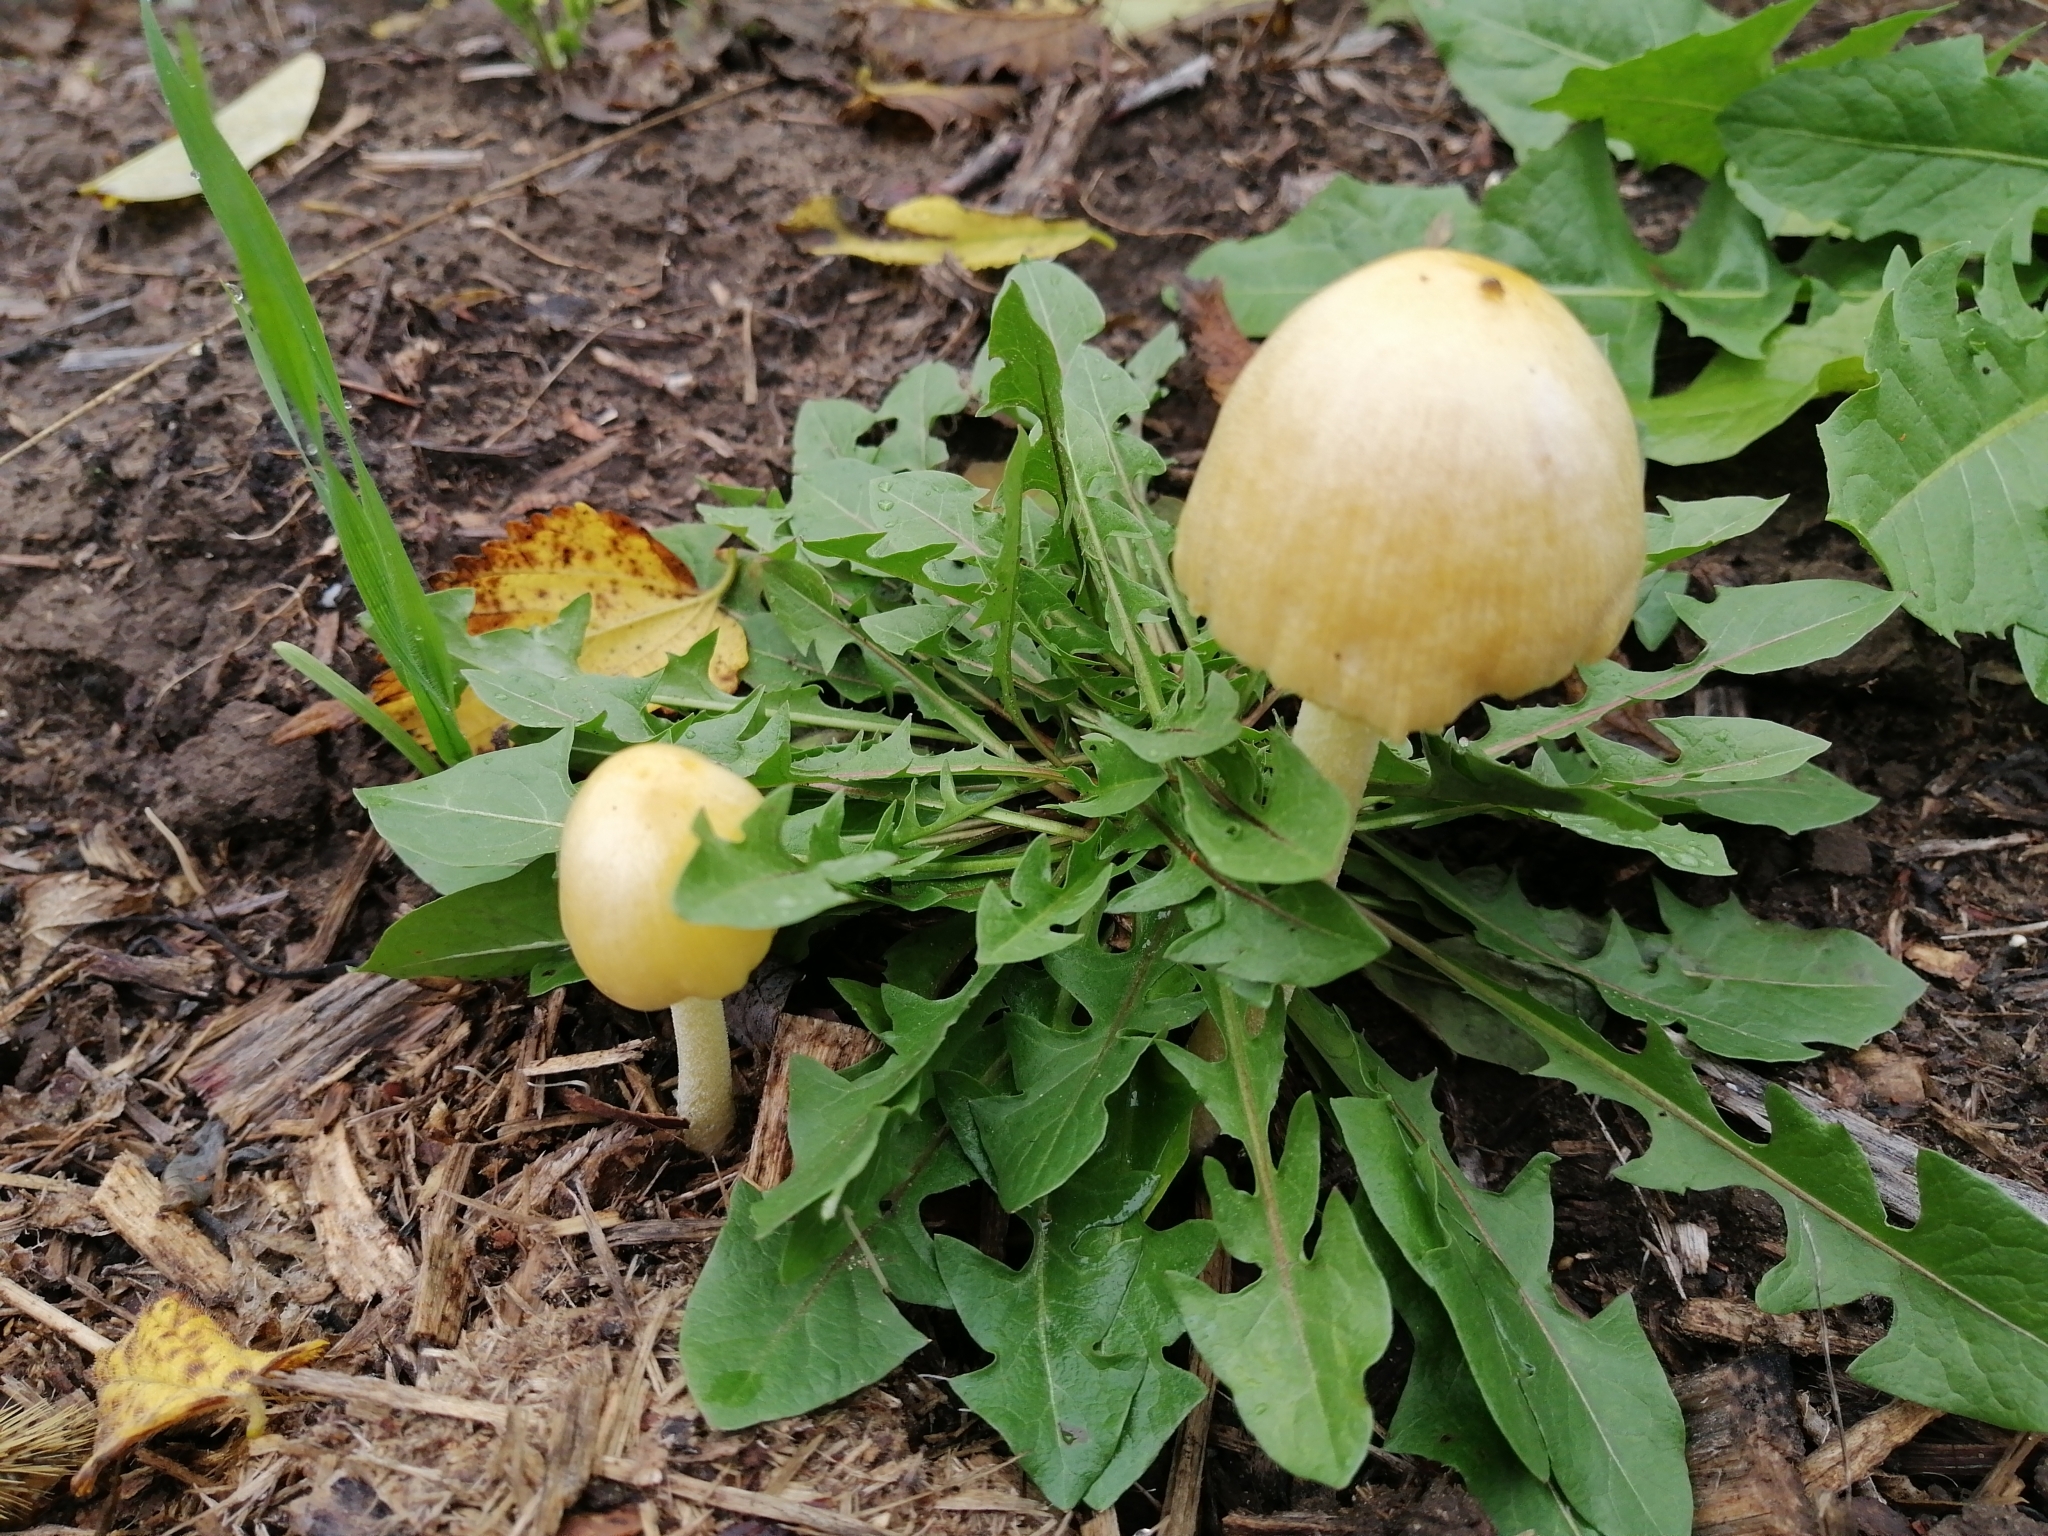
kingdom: Fungi
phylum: Basidiomycota
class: Agaricomycetes
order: Agaricales
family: Bolbitiaceae
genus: Bolbitius
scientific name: Bolbitius titubans
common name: Yellow fieldcap
